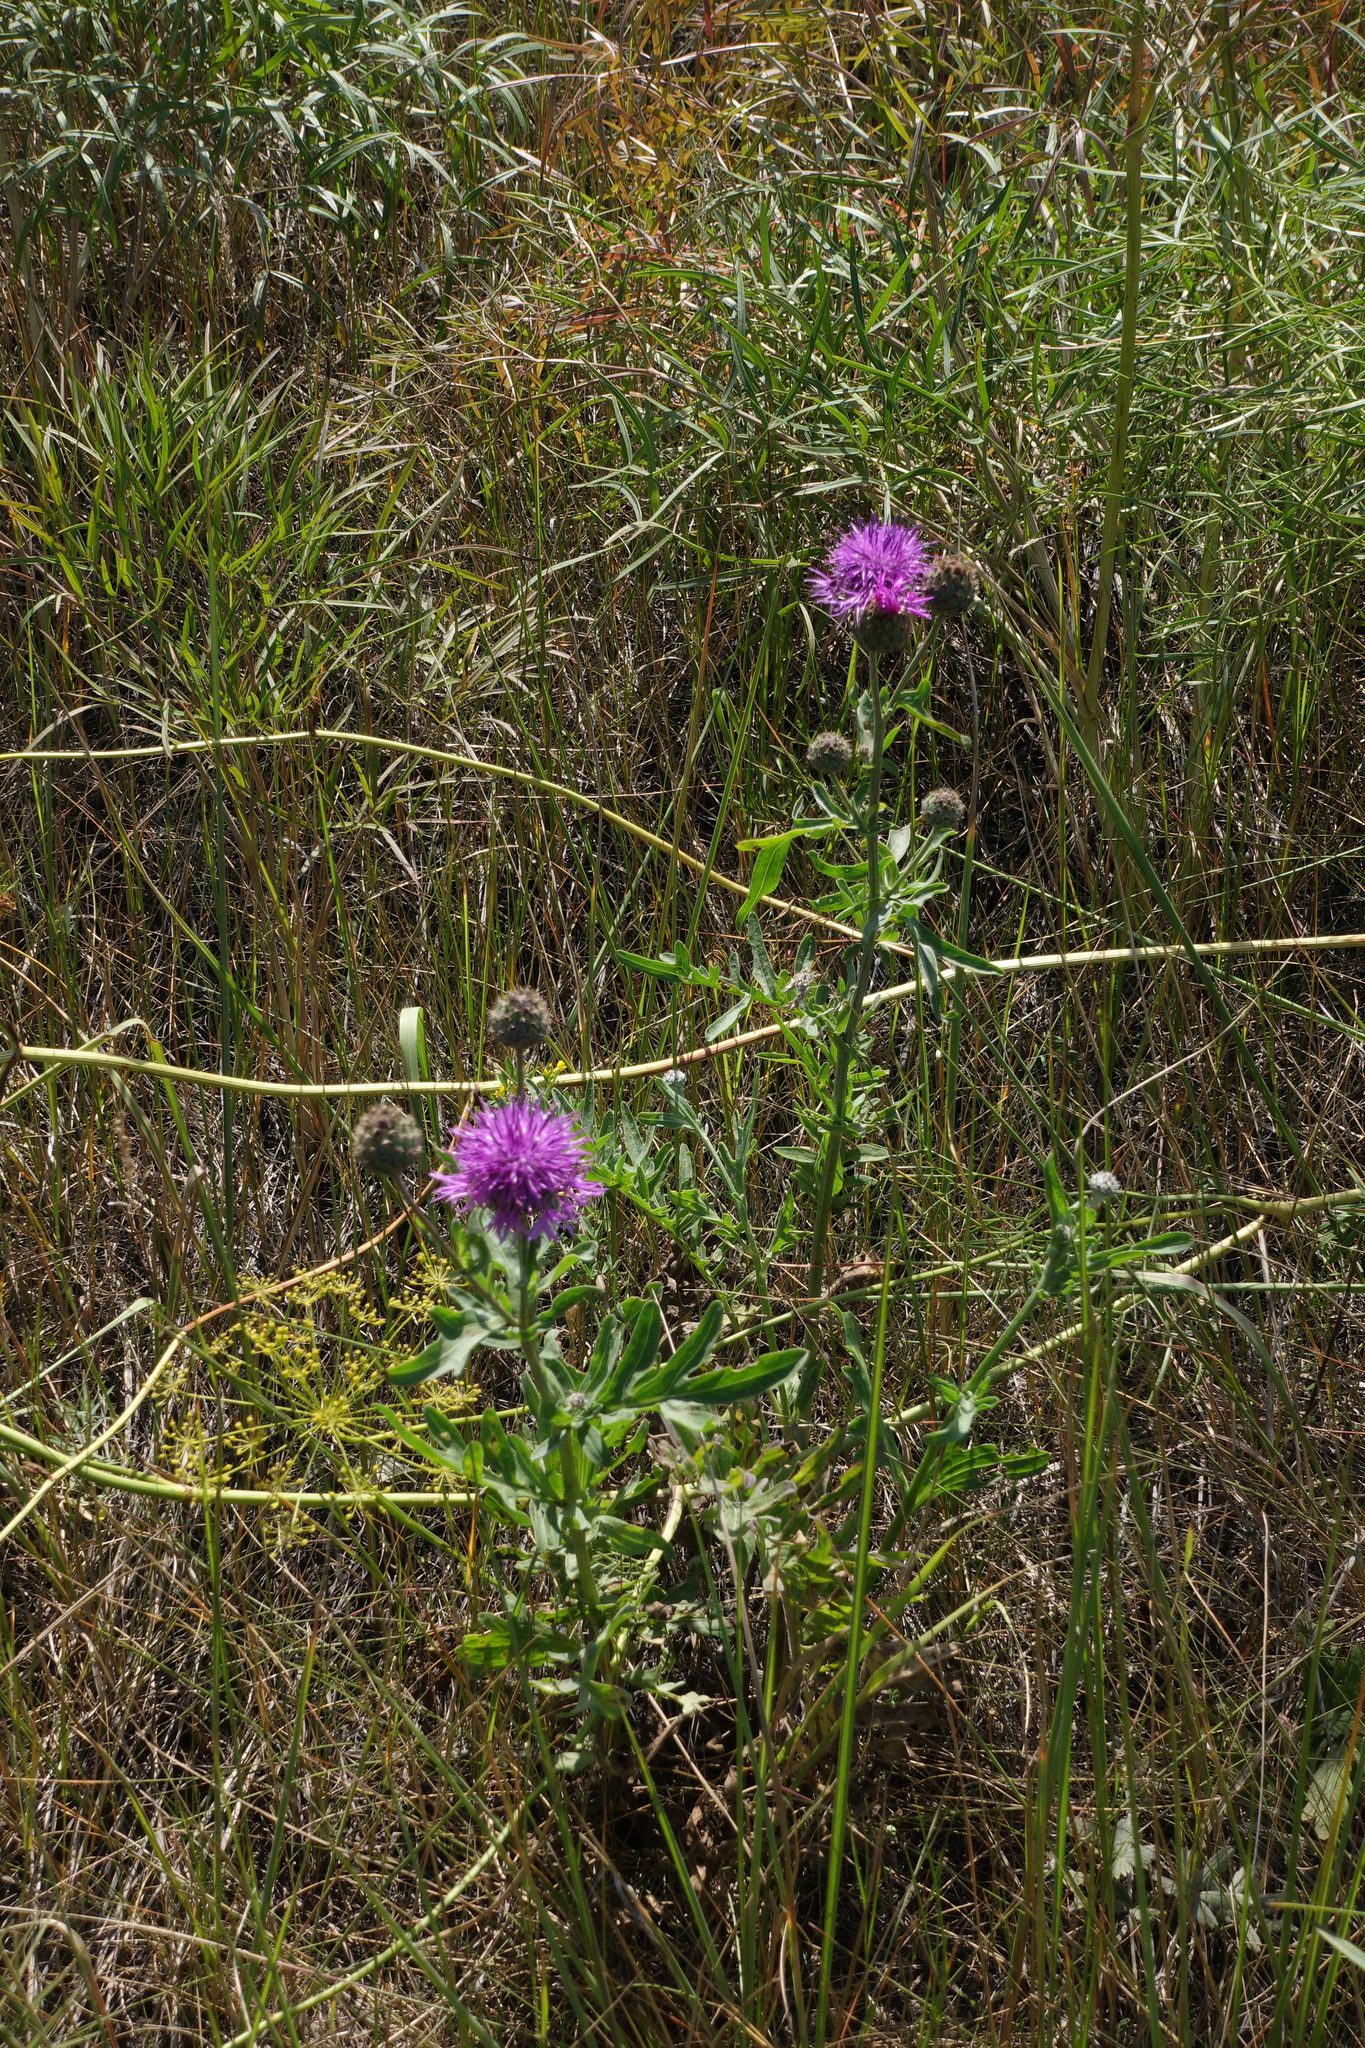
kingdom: Plantae
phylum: Tracheophyta
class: Magnoliopsida
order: Asterales
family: Asteraceae
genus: Centaurea
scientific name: Centaurea scabiosa
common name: Greater knapweed
